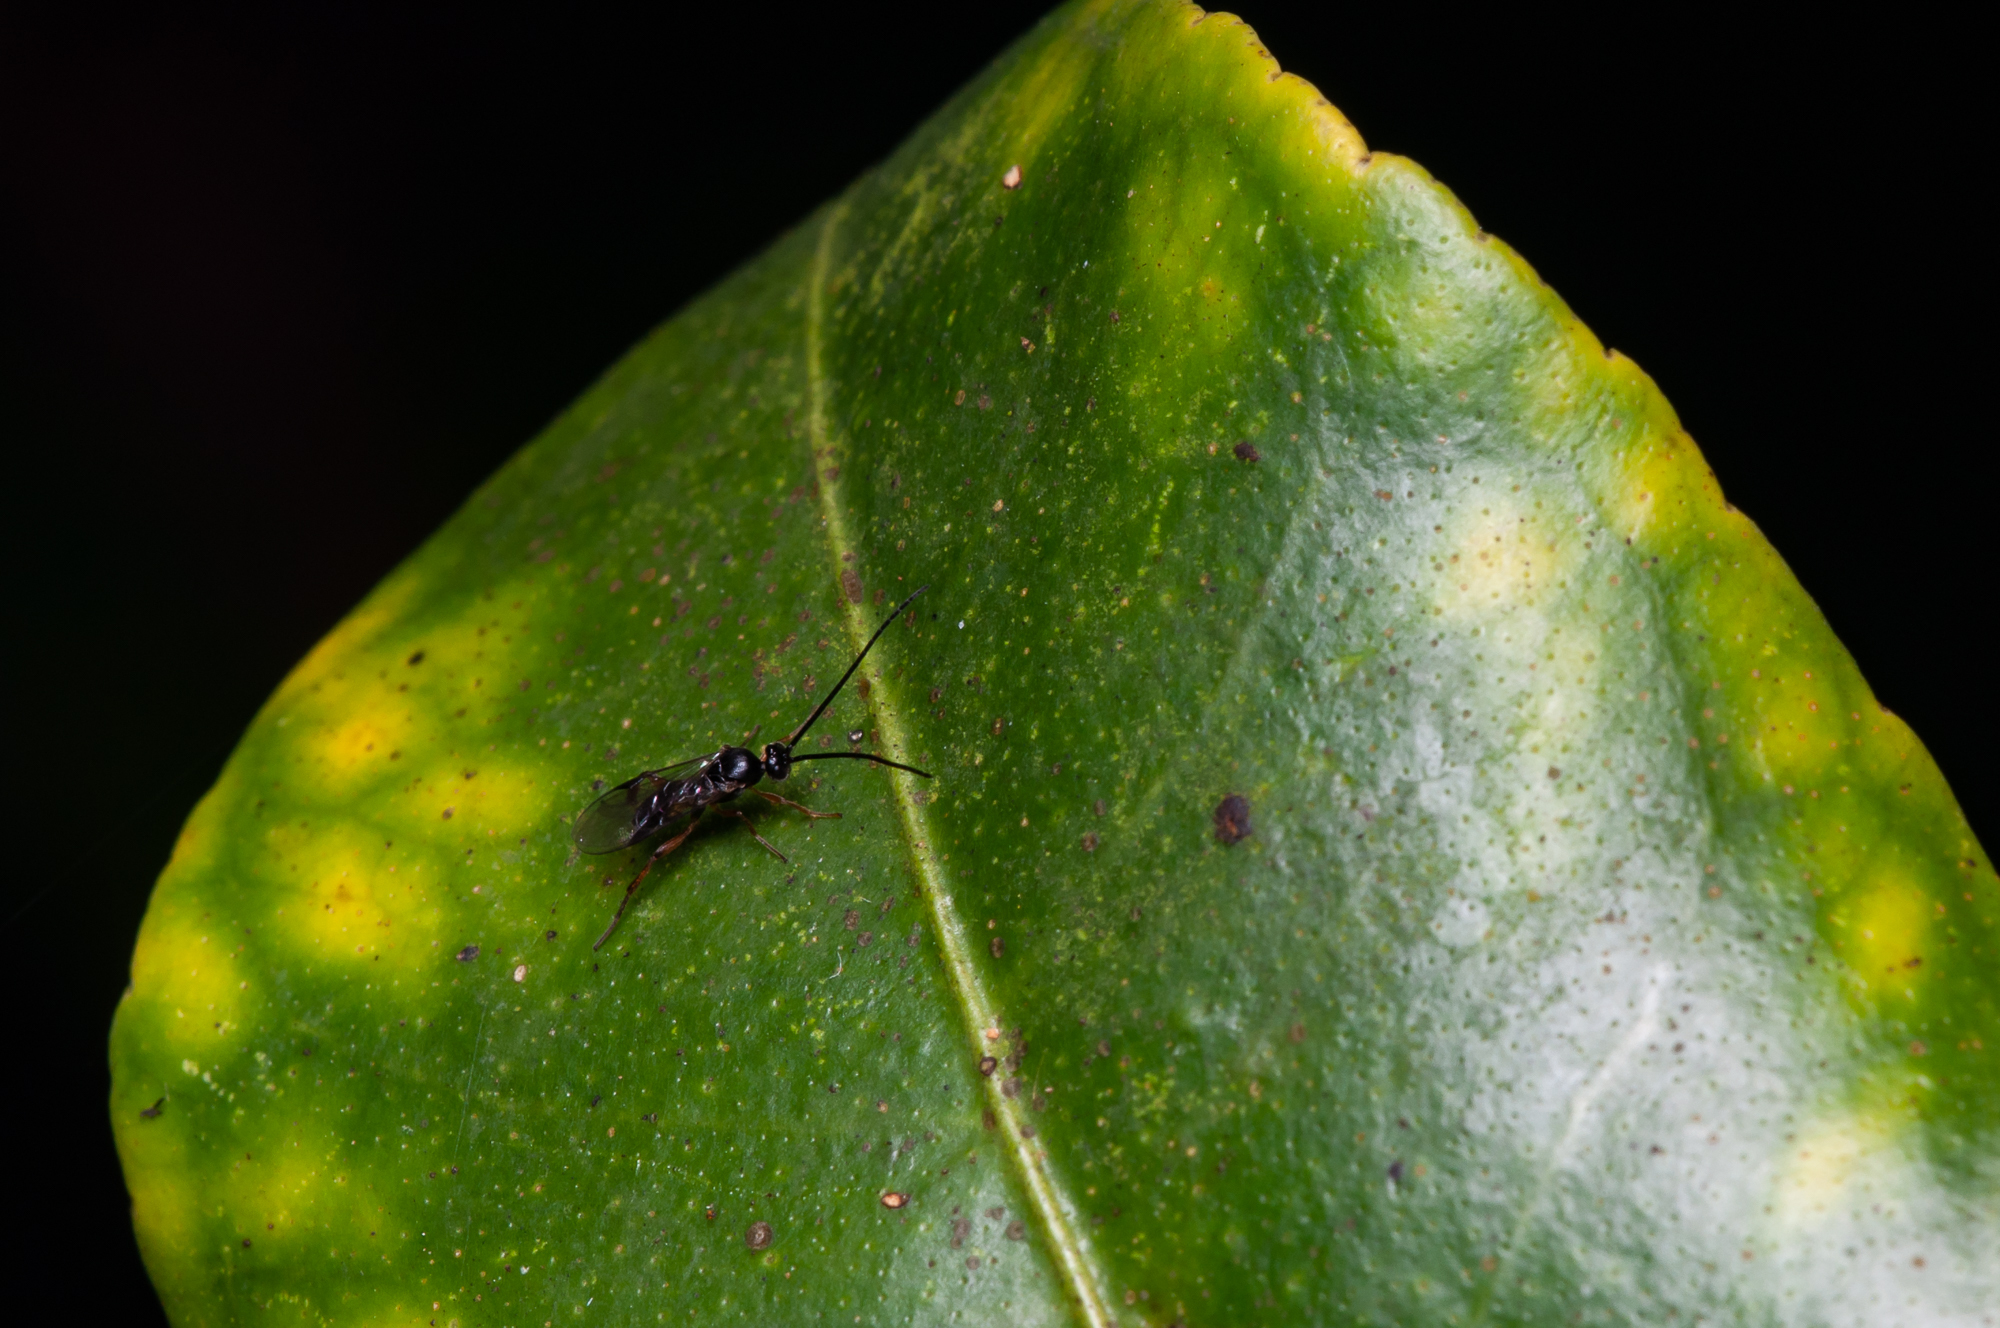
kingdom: Animalia
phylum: Arthropoda
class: Insecta
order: Hymenoptera
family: Braconidae
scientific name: Braconidae
